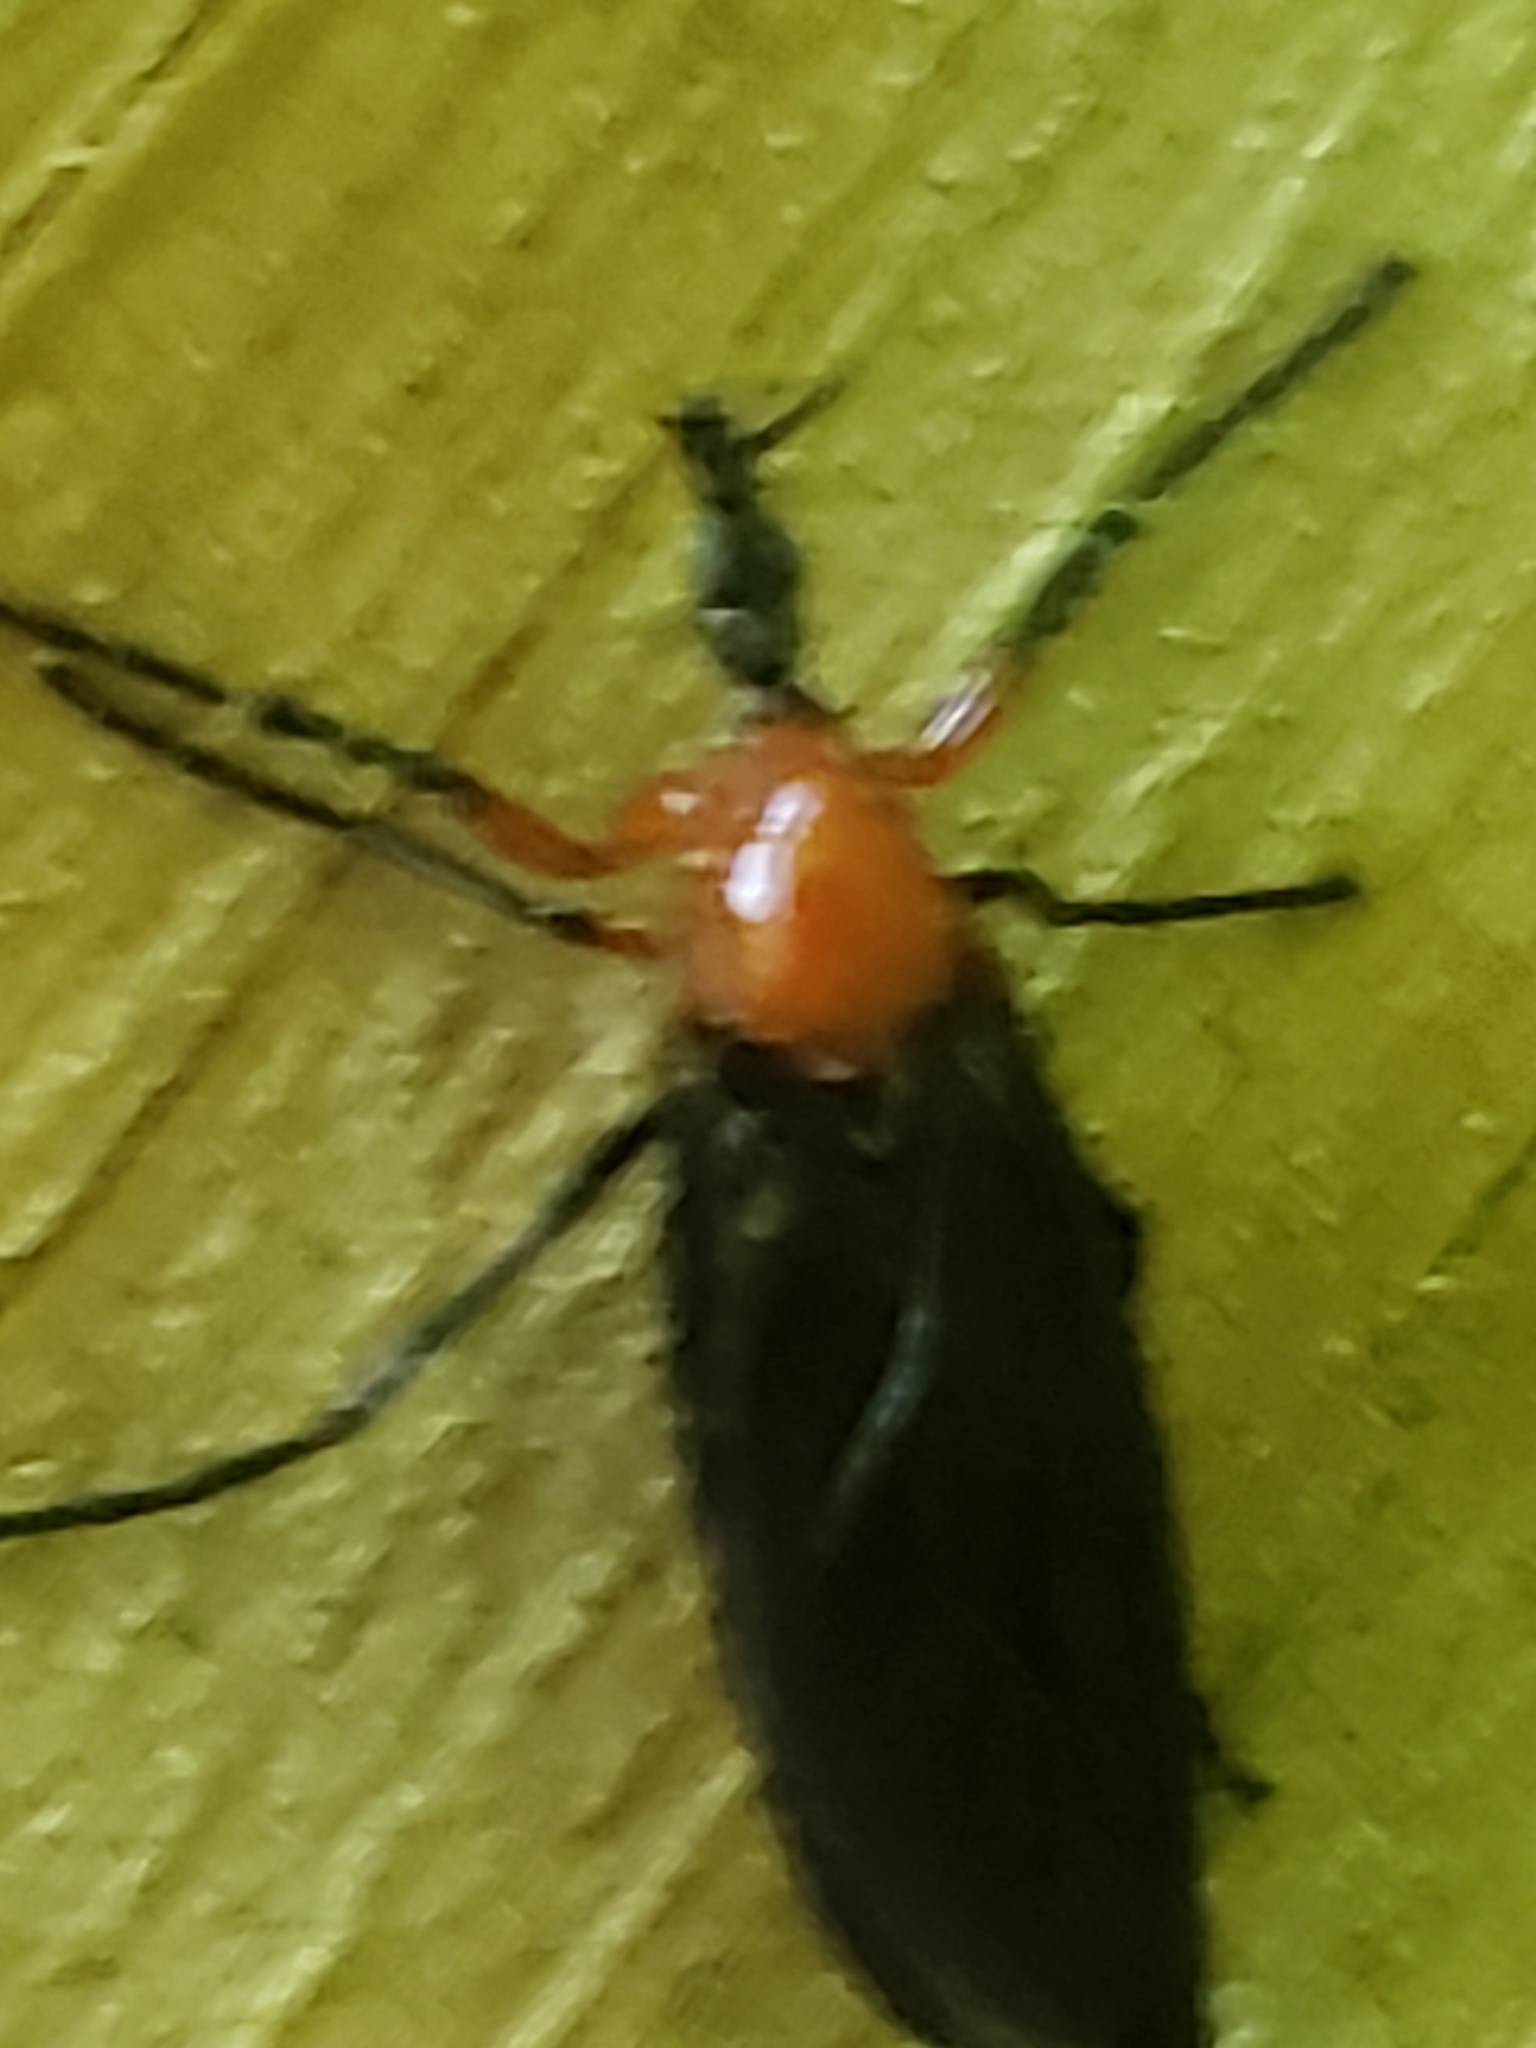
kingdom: Animalia
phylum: Arthropoda
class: Insecta
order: Diptera
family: Bibionidae
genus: Dilophus
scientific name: Dilophus spinipes
